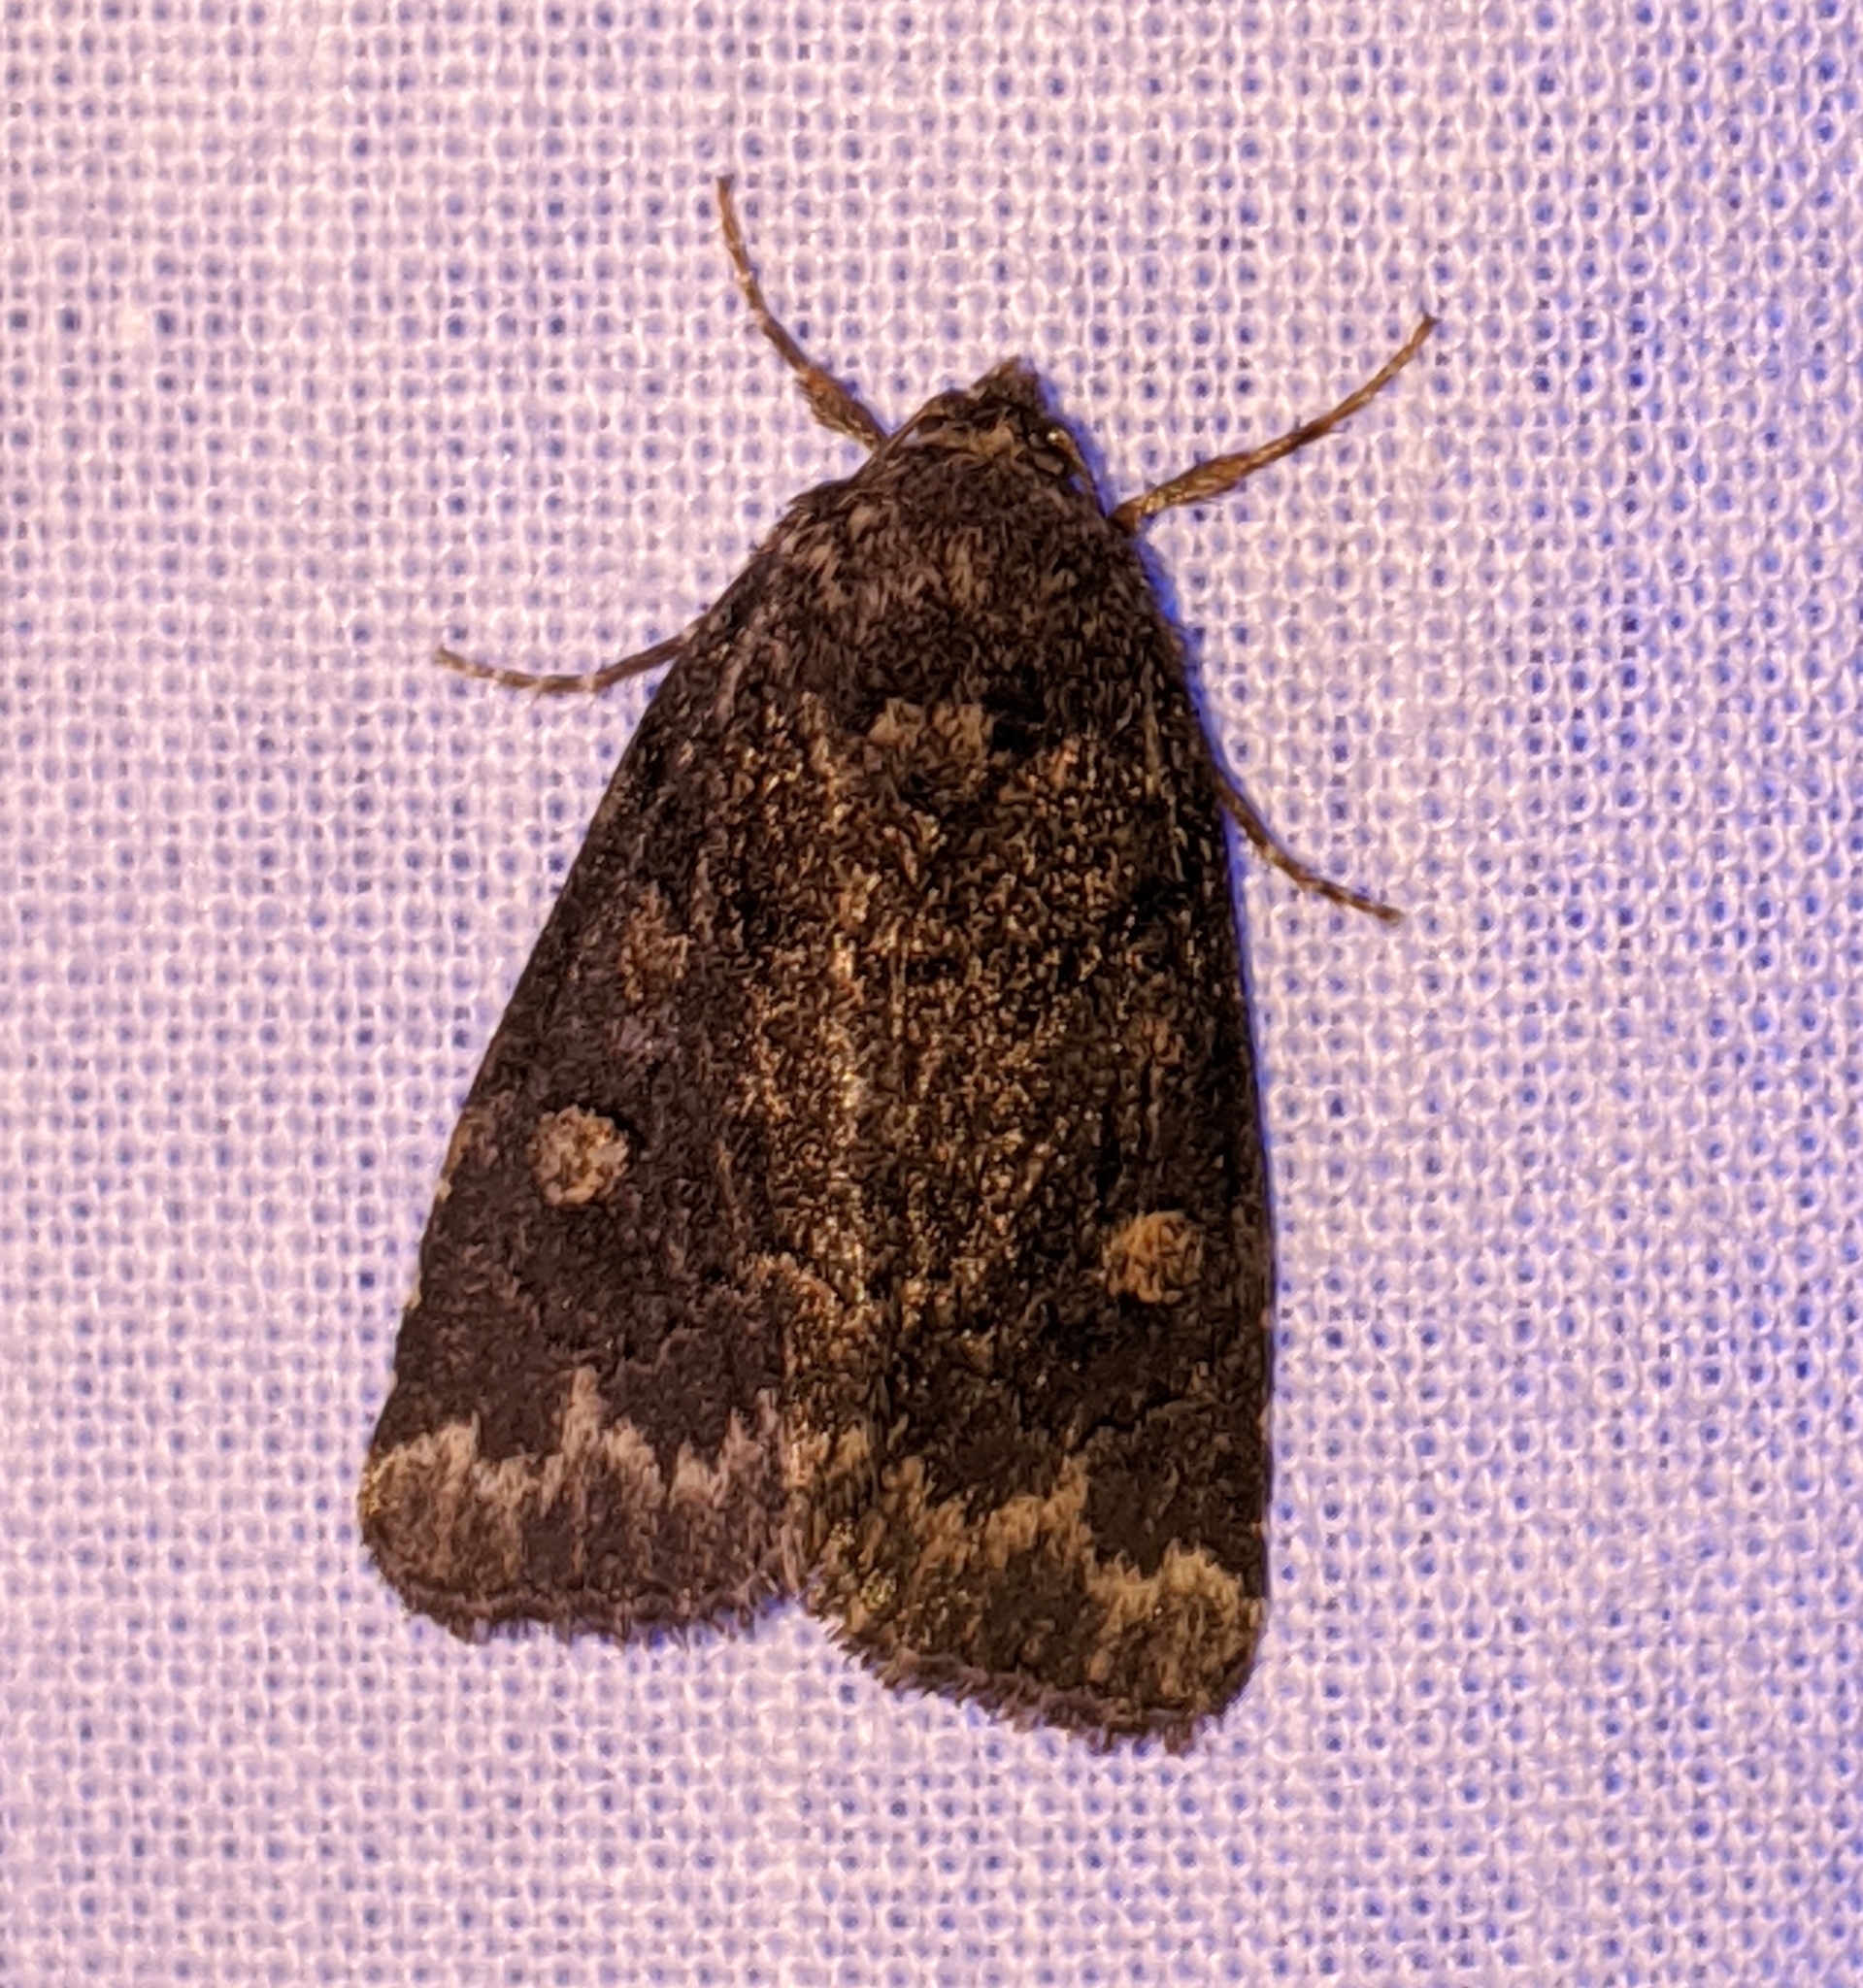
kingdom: Animalia
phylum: Arthropoda
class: Insecta
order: Lepidoptera
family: Noctuidae
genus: Cosmia
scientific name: Cosmia praeacuta
